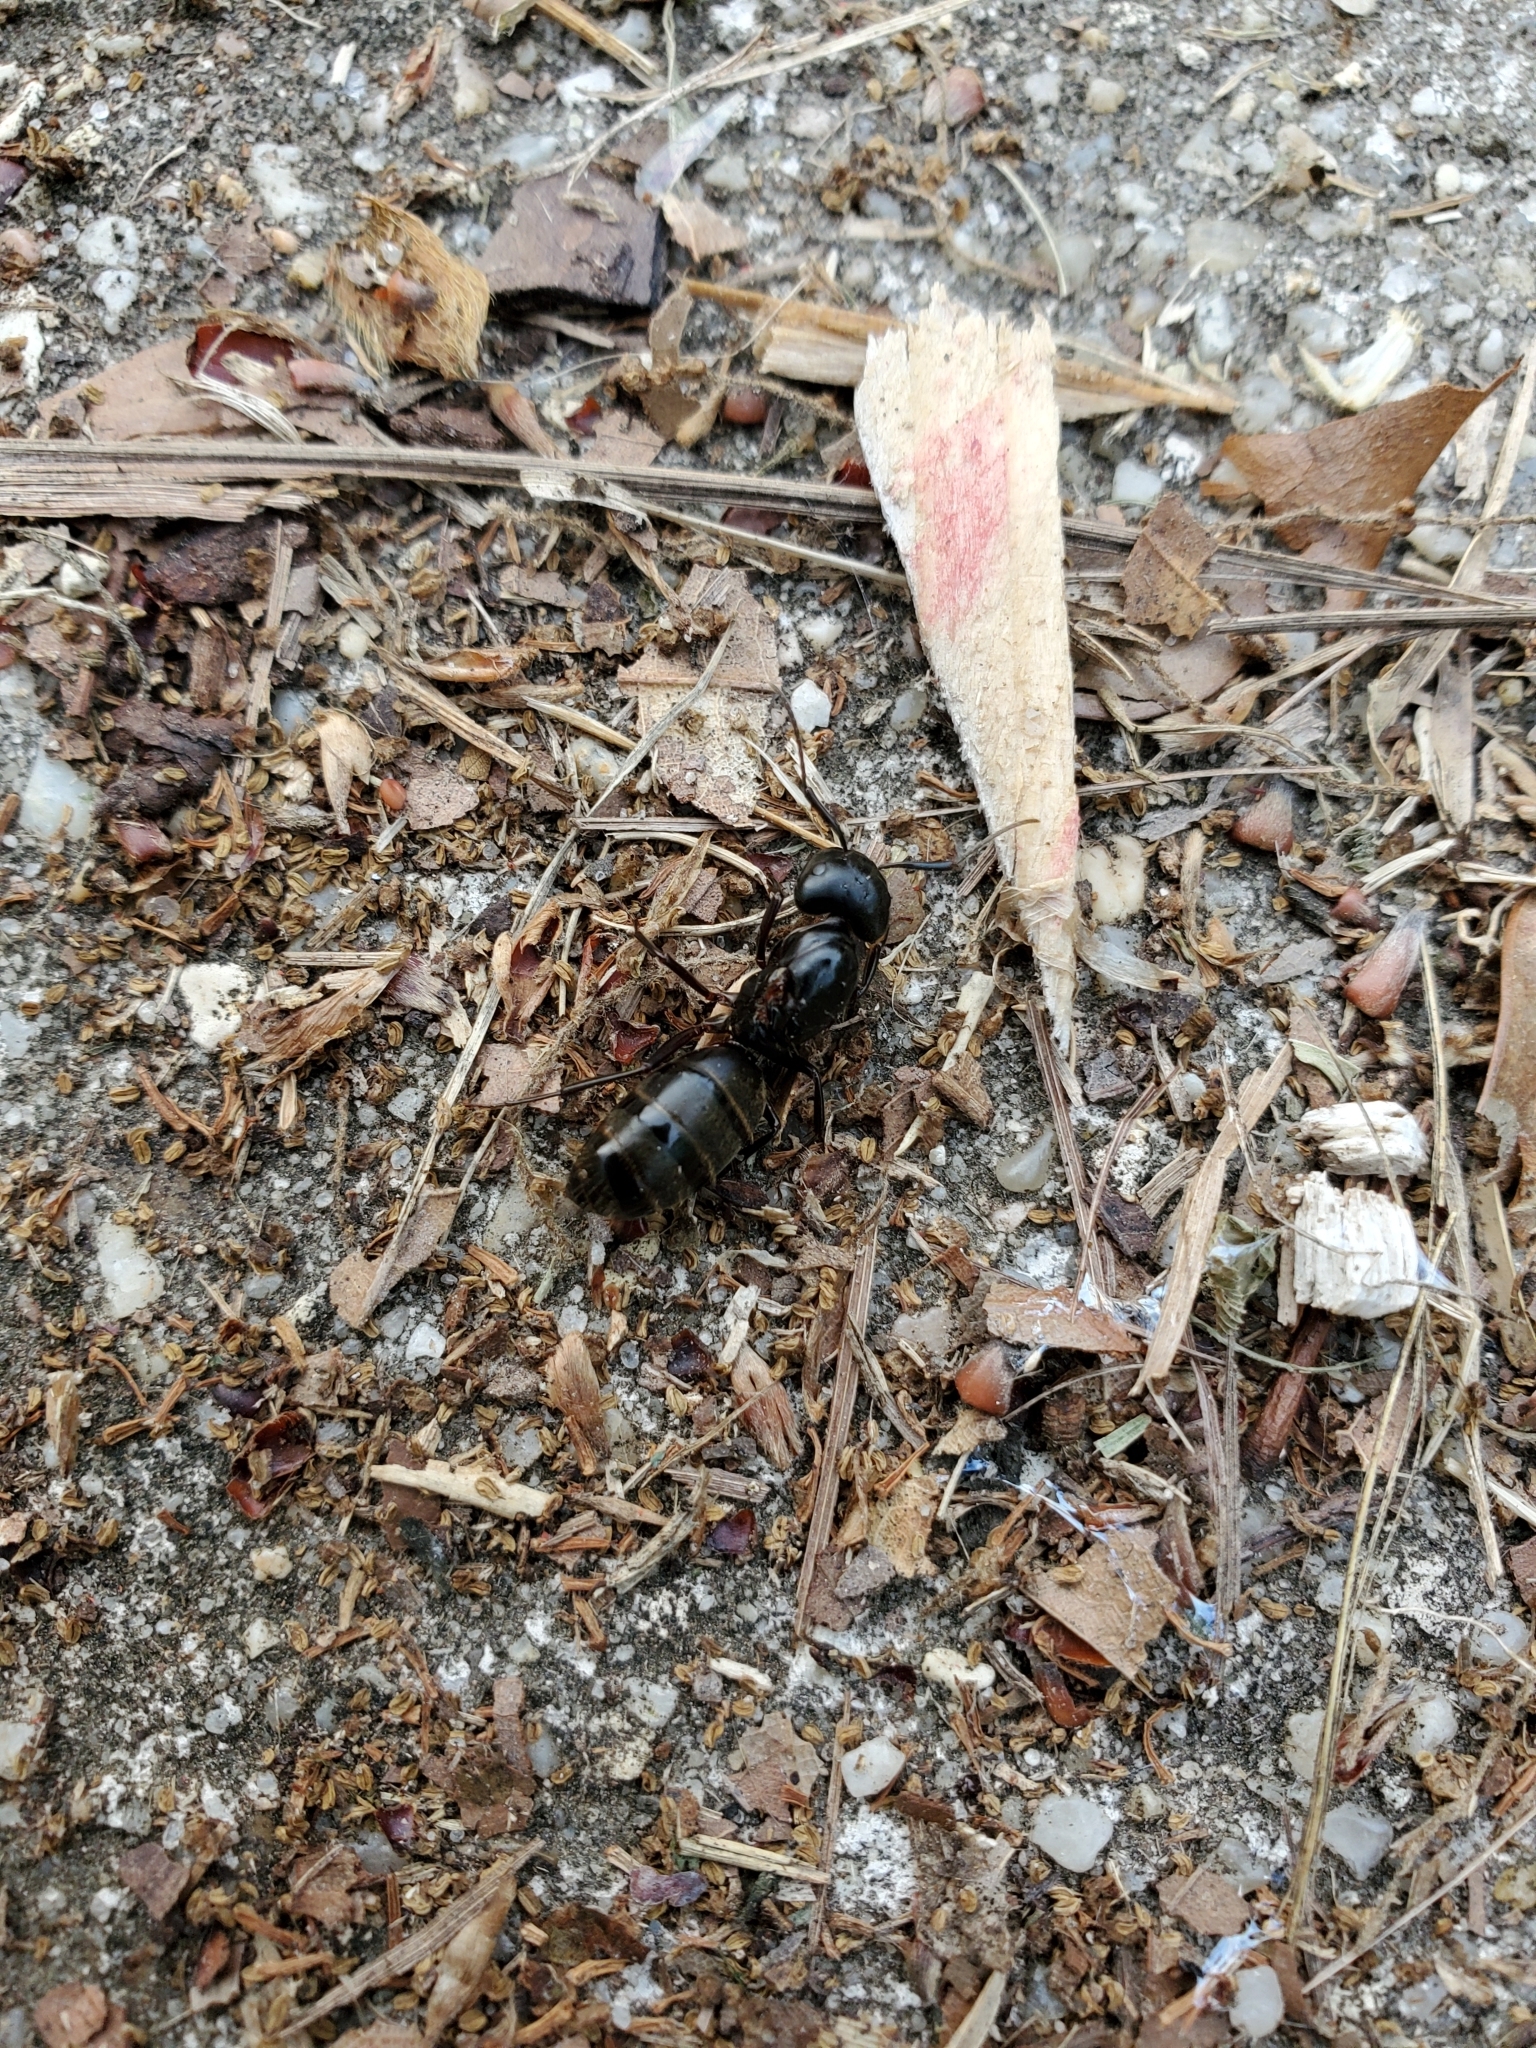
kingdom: Animalia
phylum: Arthropoda
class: Insecta
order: Hymenoptera
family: Formicidae
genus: Camponotus
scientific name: Camponotus pennsylvanicus
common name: Black carpenter ant
